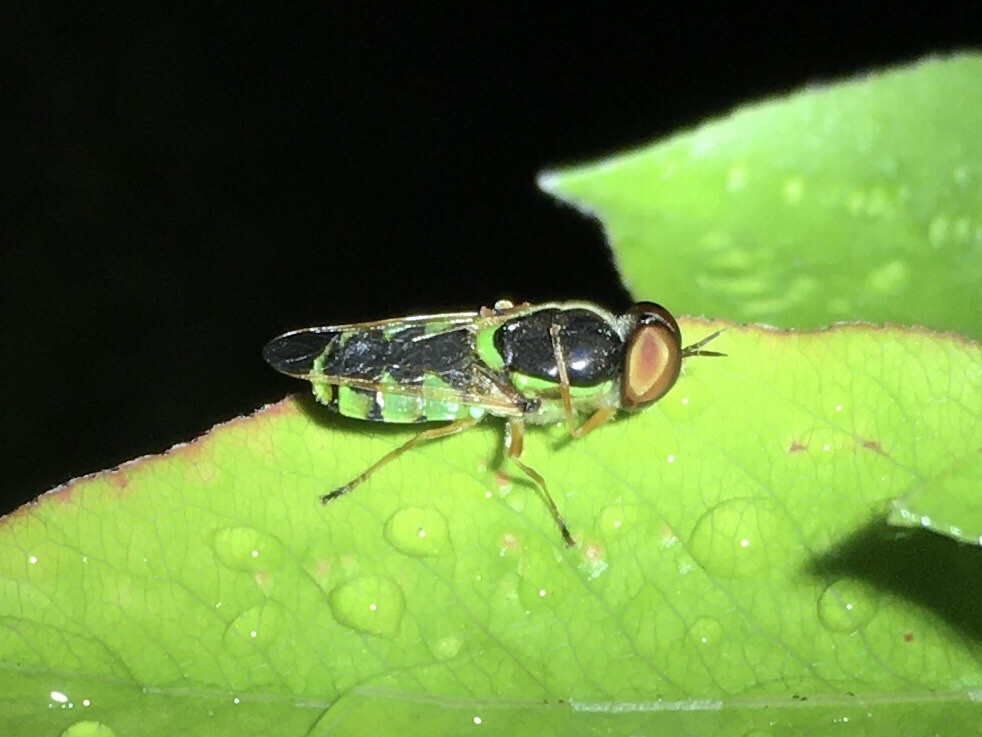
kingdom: Animalia
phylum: Arthropoda
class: Insecta
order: Diptera
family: Stratiomyidae
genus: Odontomyia
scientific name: Odontomyia cincta
